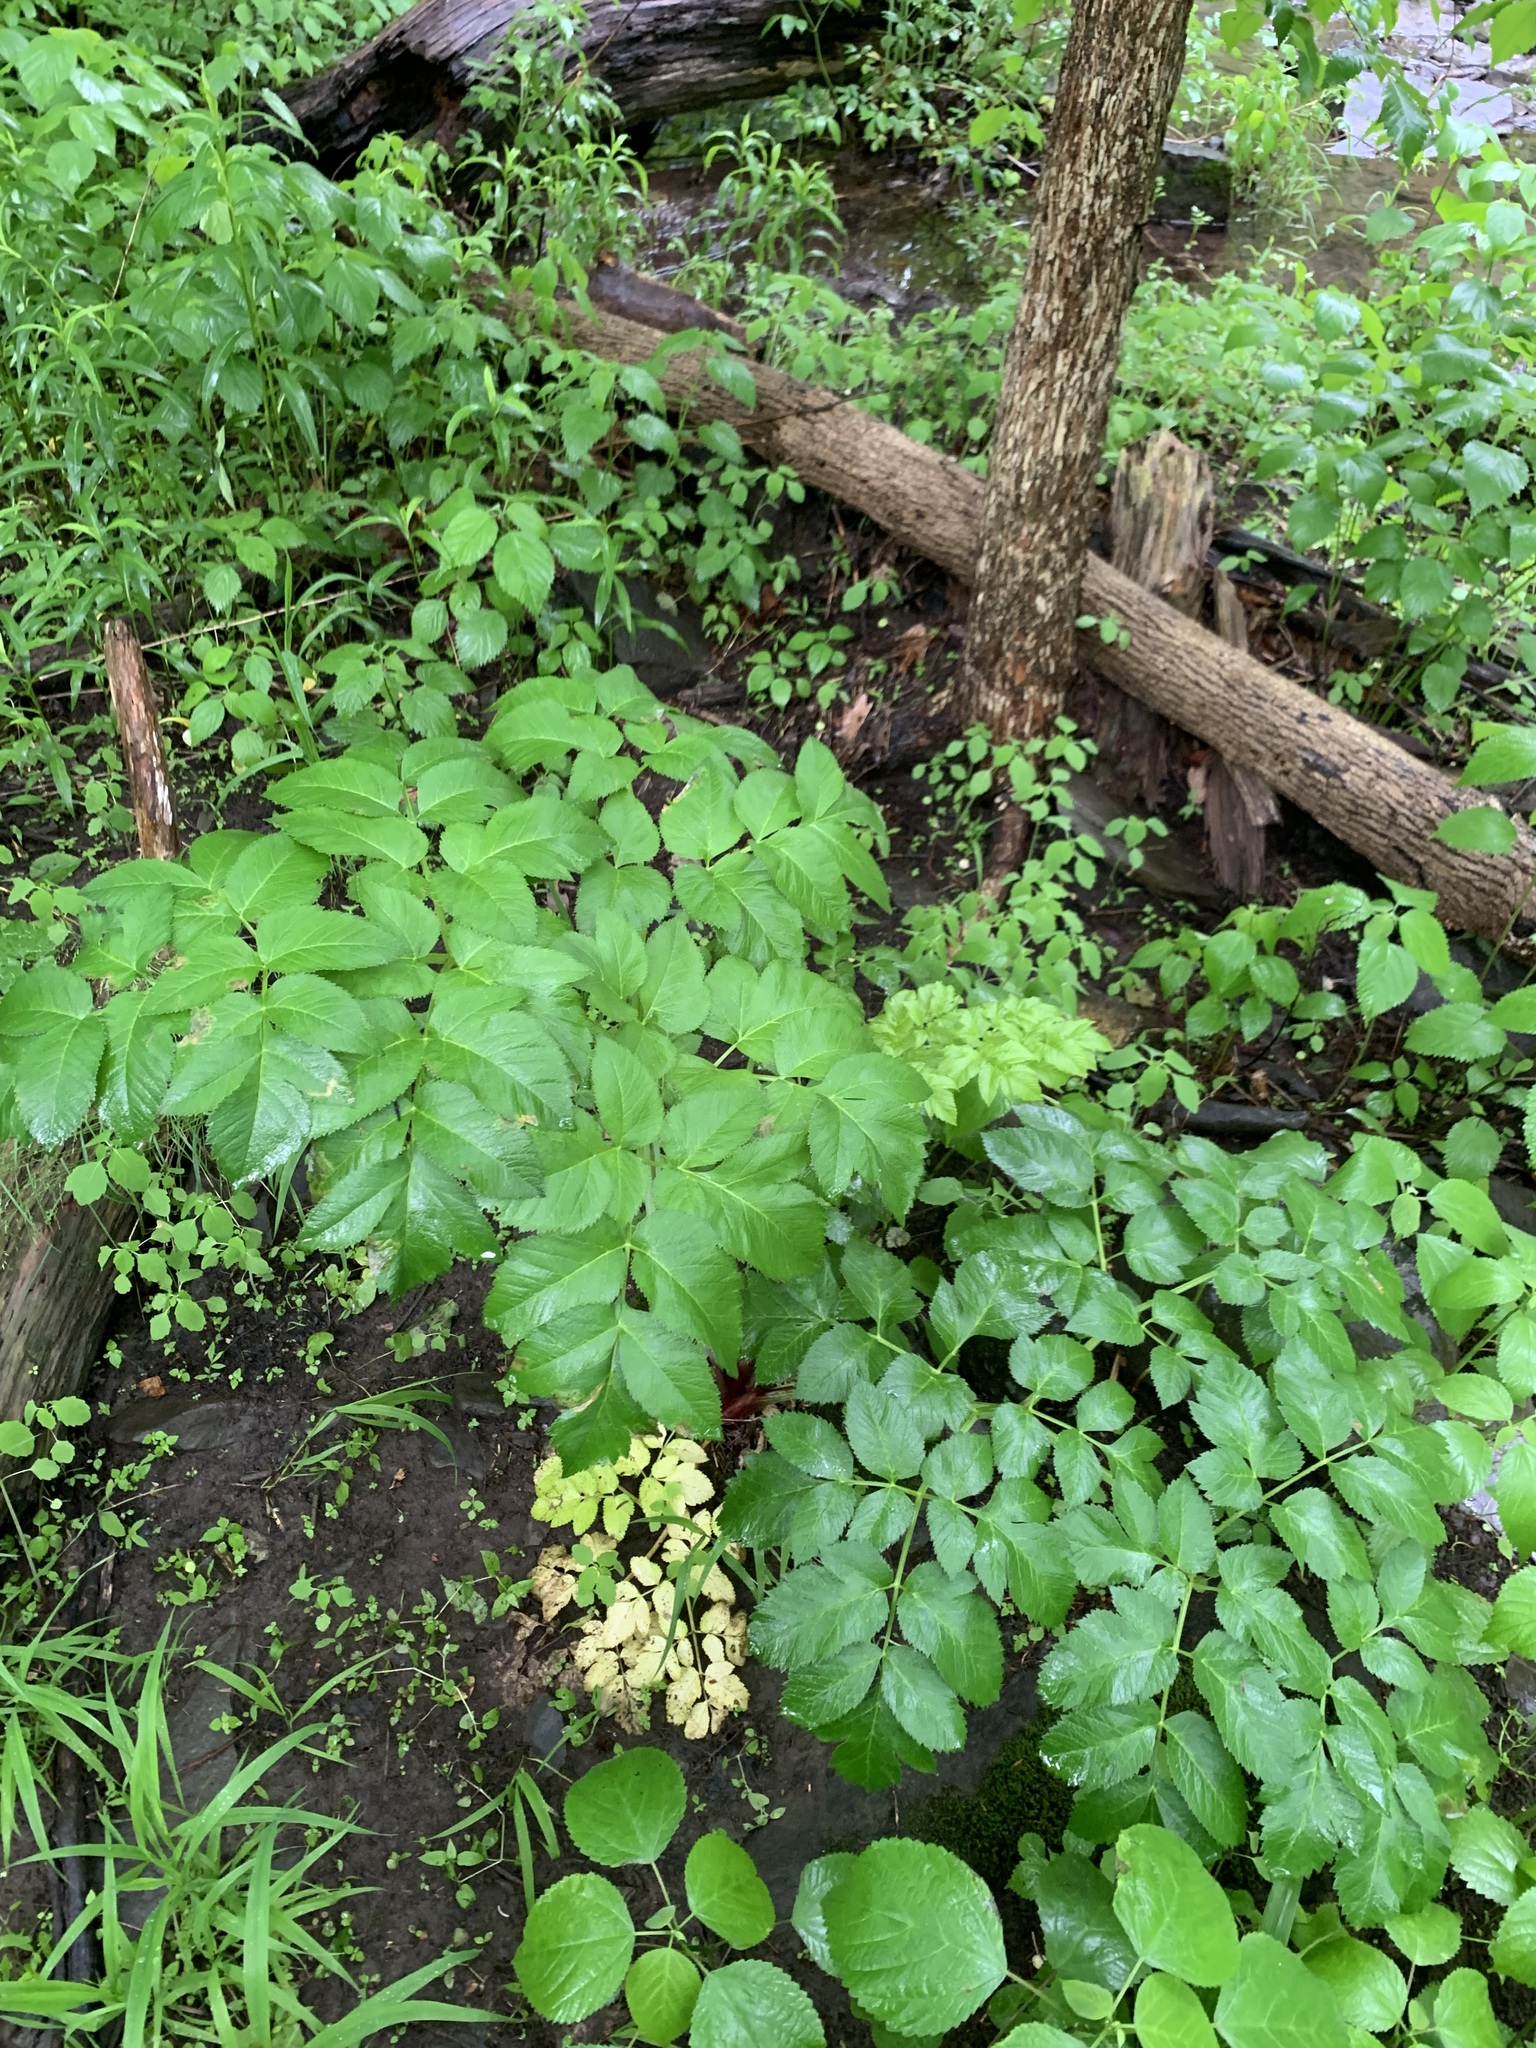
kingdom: Plantae
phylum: Tracheophyta
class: Magnoliopsida
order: Apiales
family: Apiaceae
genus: Angelica
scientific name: Angelica atropurpurea
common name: Great angelica
